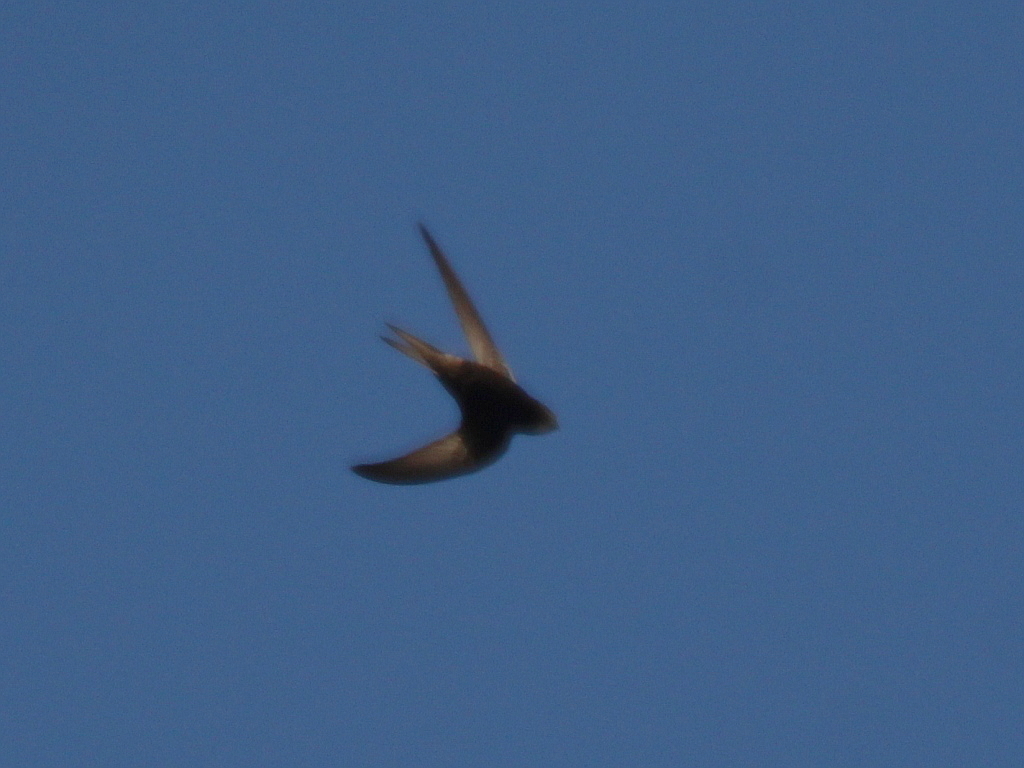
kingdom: Animalia
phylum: Chordata
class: Aves
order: Apodiformes
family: Apodidae
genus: Apus
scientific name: Apus apus
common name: Common swift
